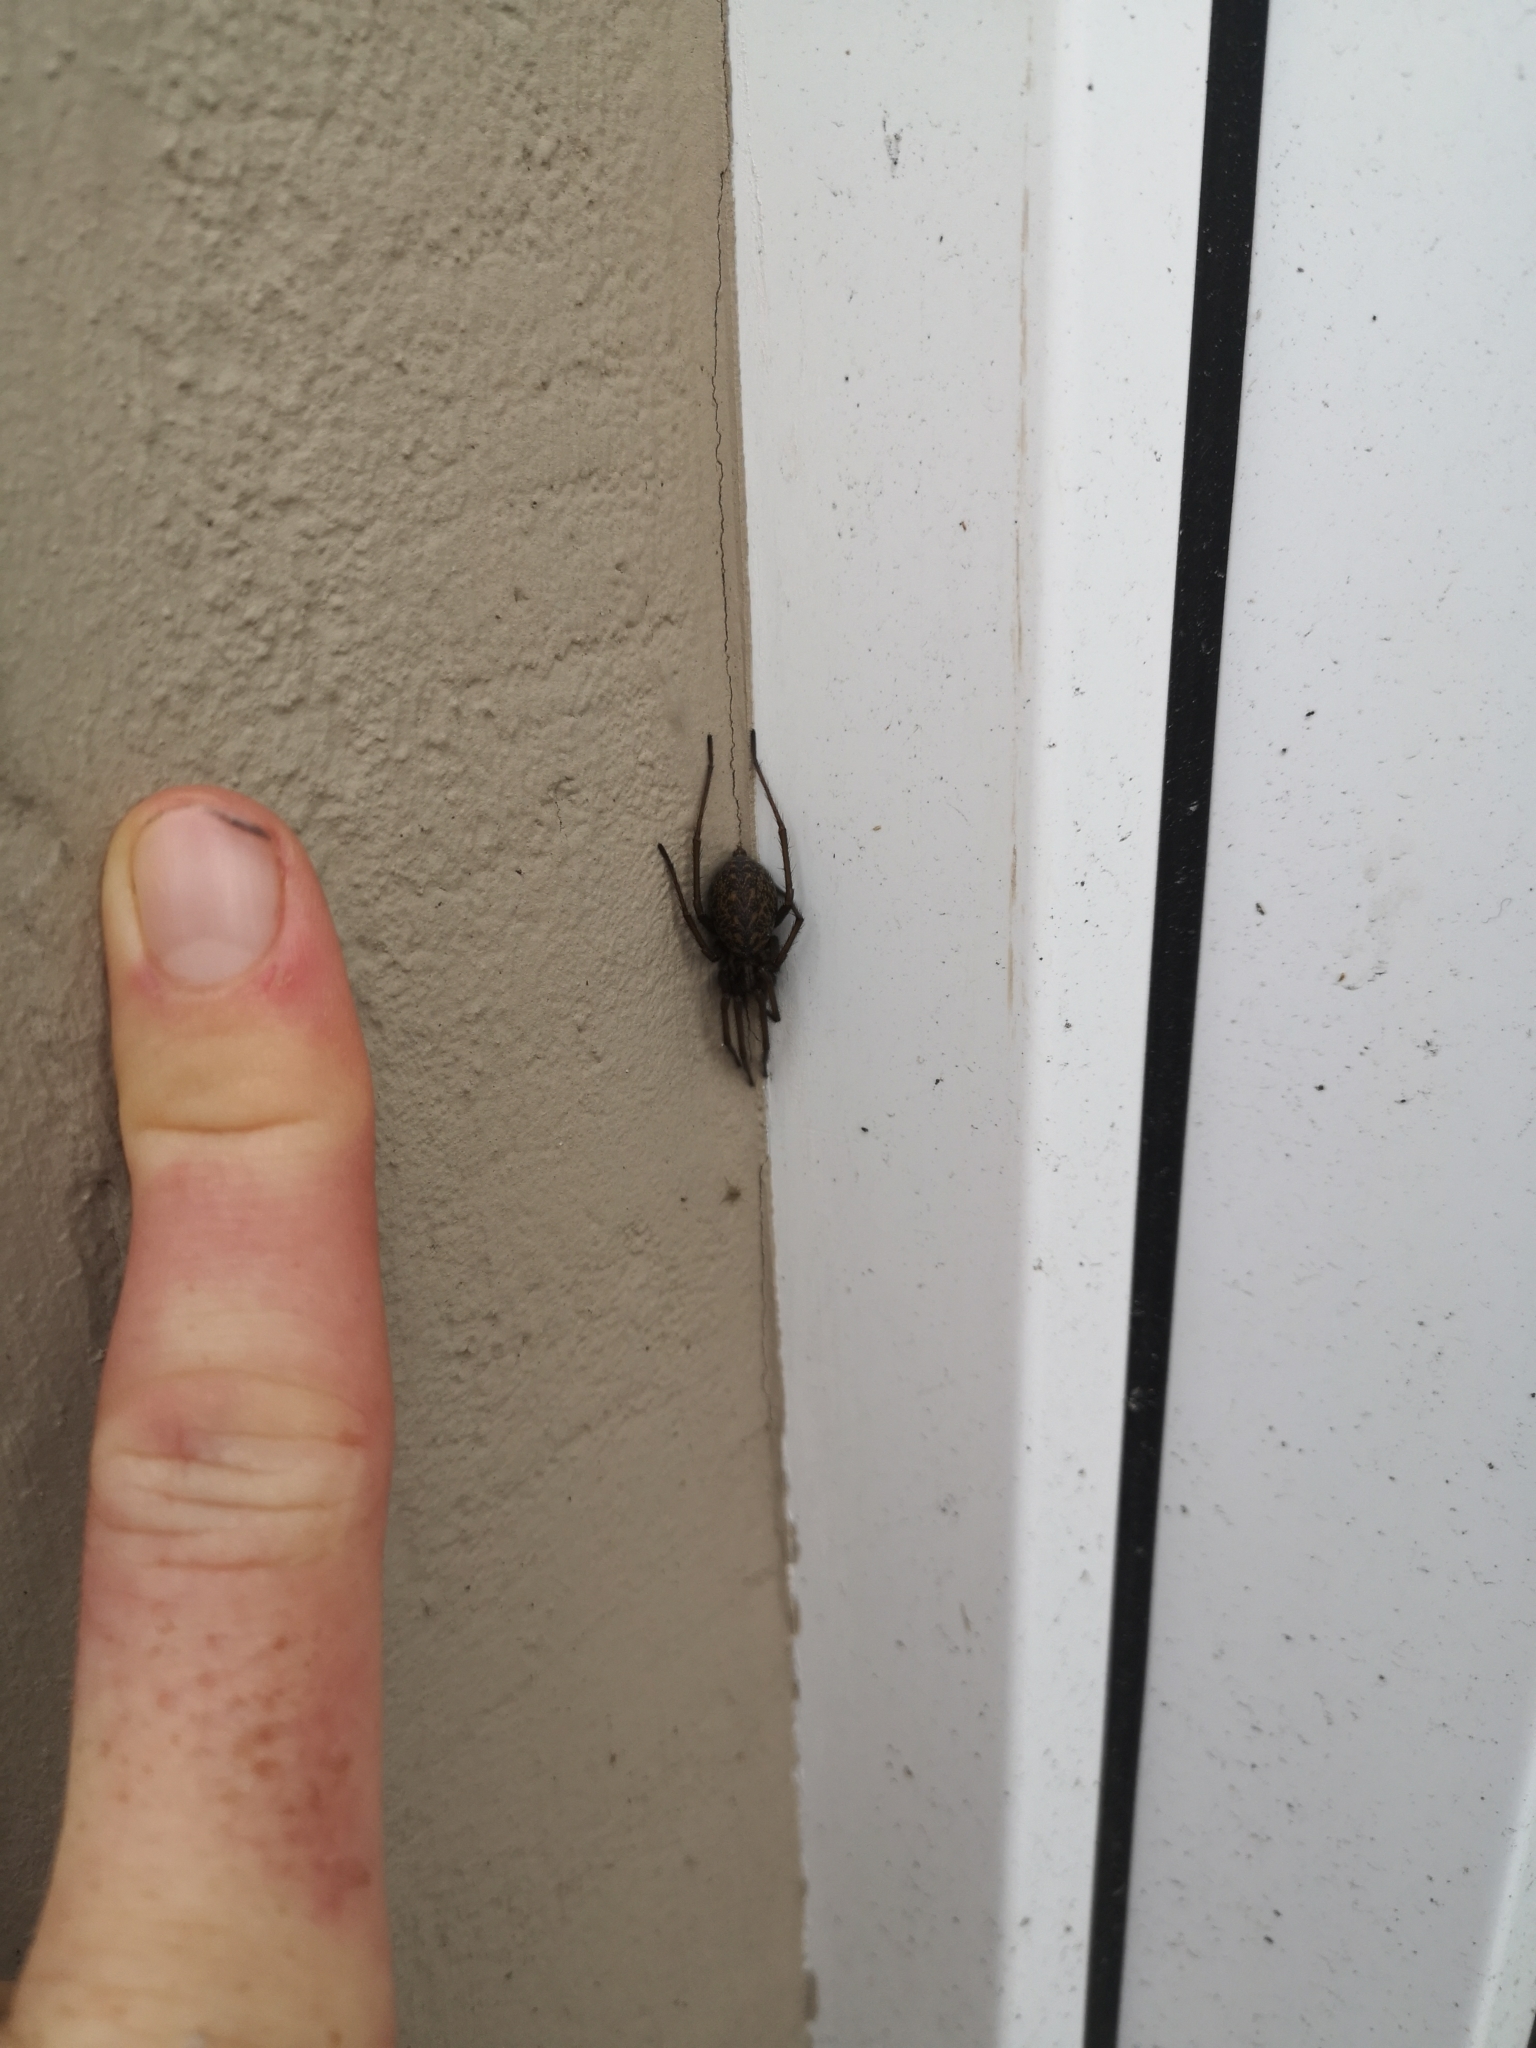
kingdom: Animalia
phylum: Arthropoda
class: Arachnida
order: Araneae
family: Agelenidae
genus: Eratigena
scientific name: Eratigena atrica
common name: Giant house spider
